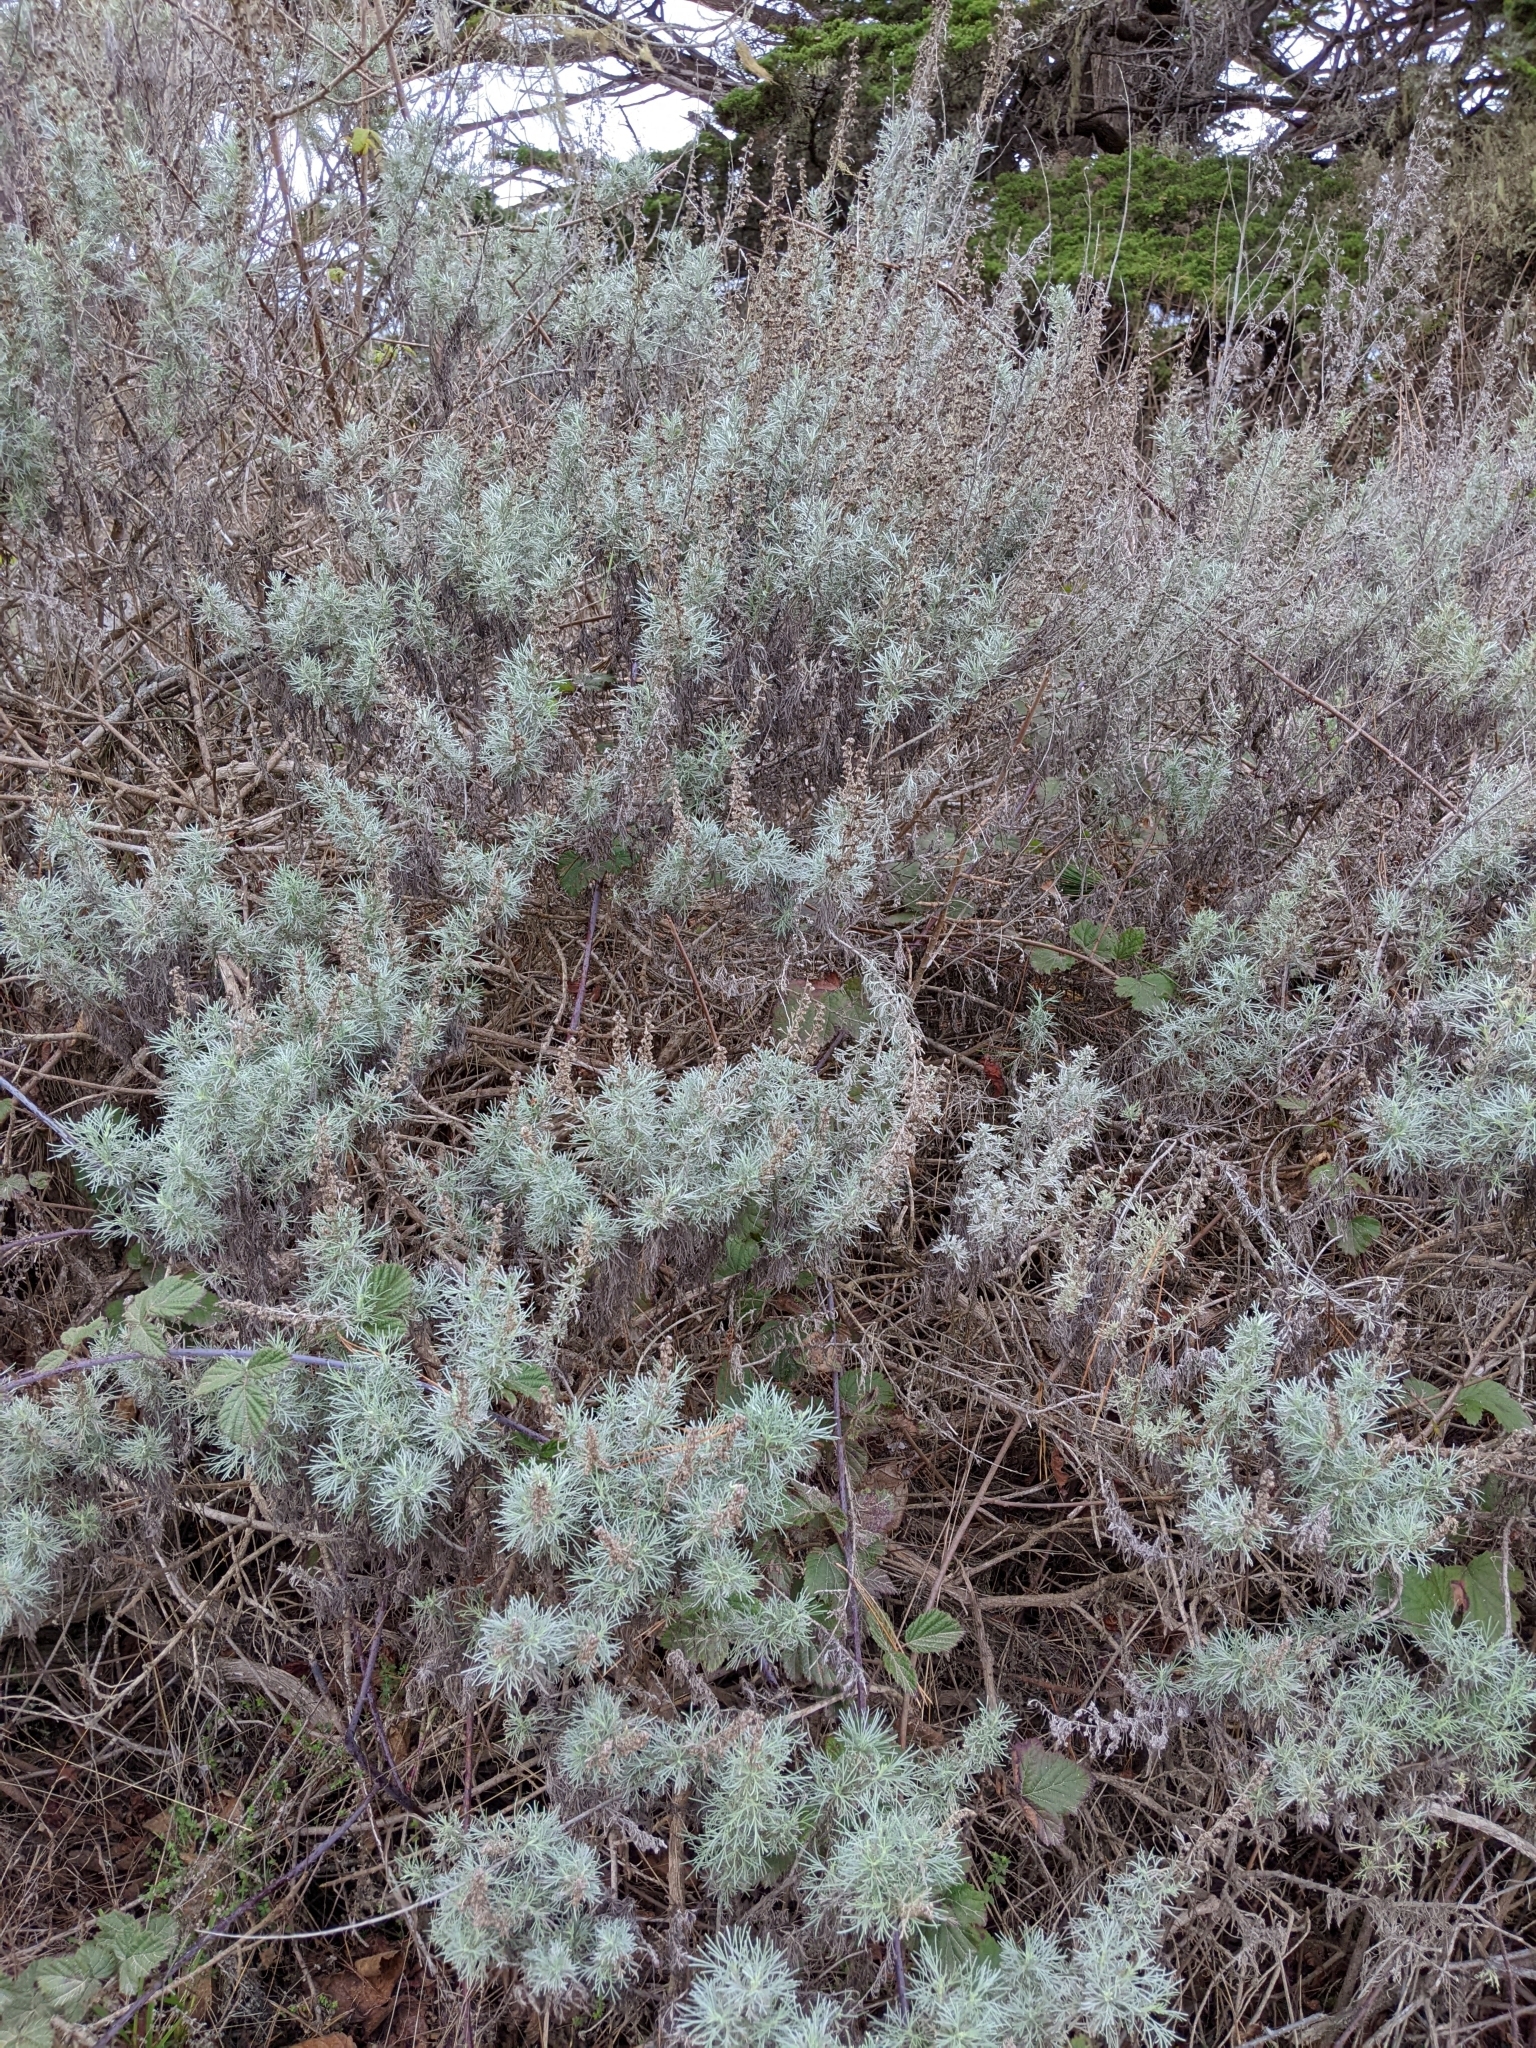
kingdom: Plantae
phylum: Tracheophyta
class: Magnoliopsida
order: Asterales
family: Asteraceae
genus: Artemisia
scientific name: Artemisia californica
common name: California sagebrush
